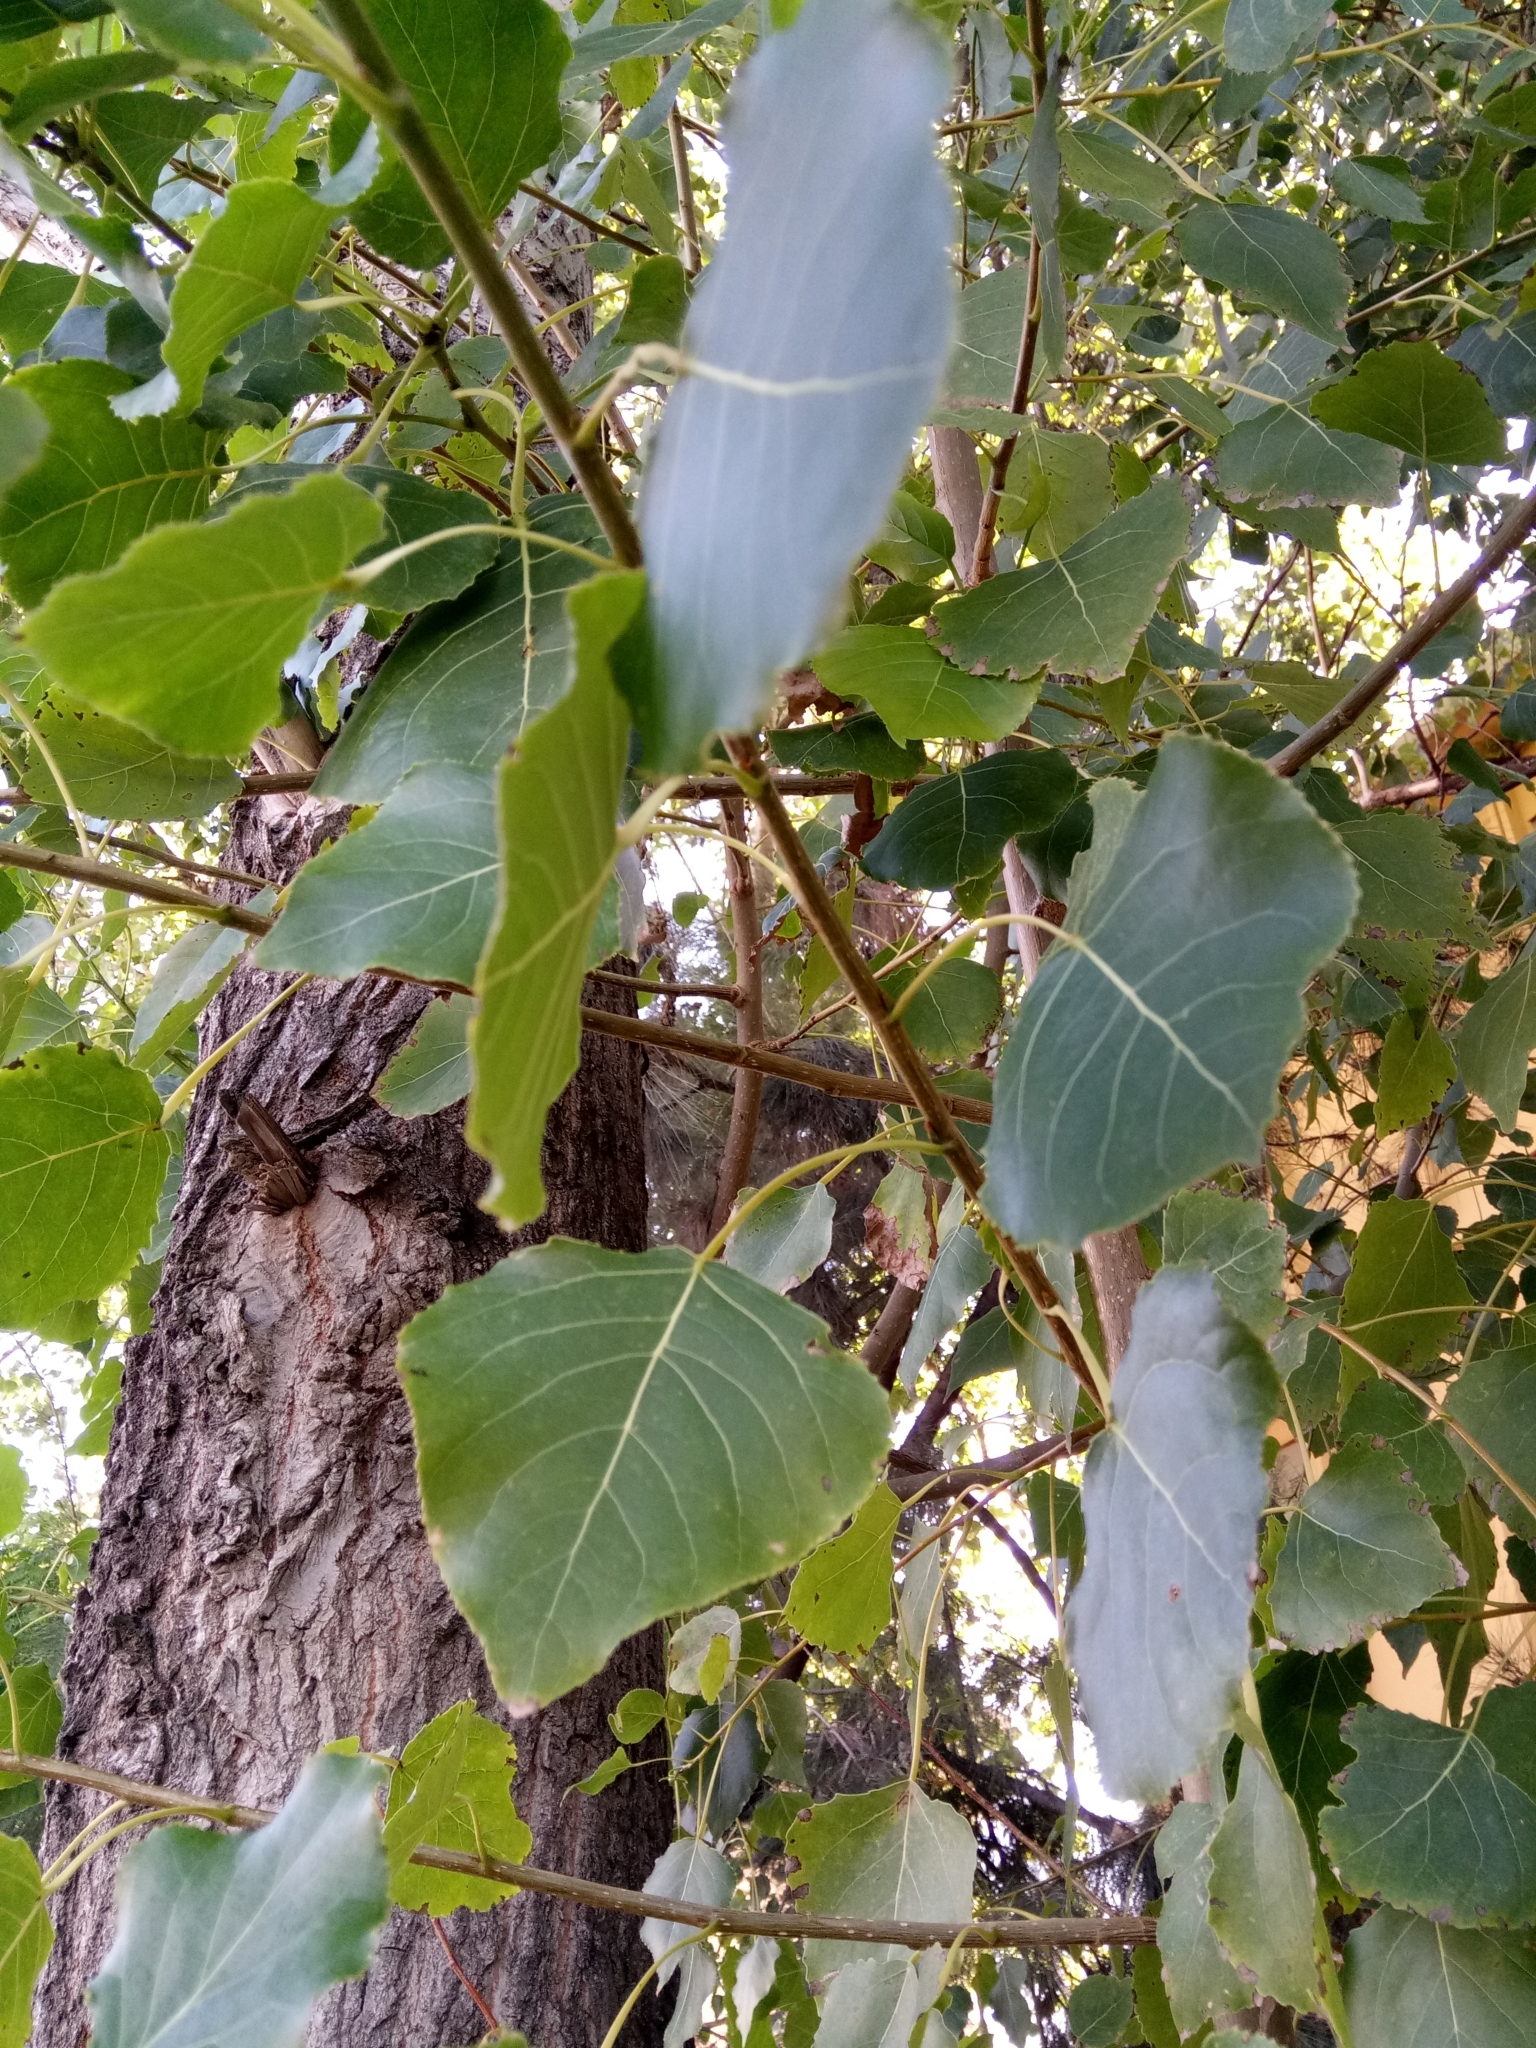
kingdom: Plantae
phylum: Tracheophyta
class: Magnoliopsida
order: Malpighiales
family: Salicaceae
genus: Populus
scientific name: Populus nigra
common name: Black poplar
